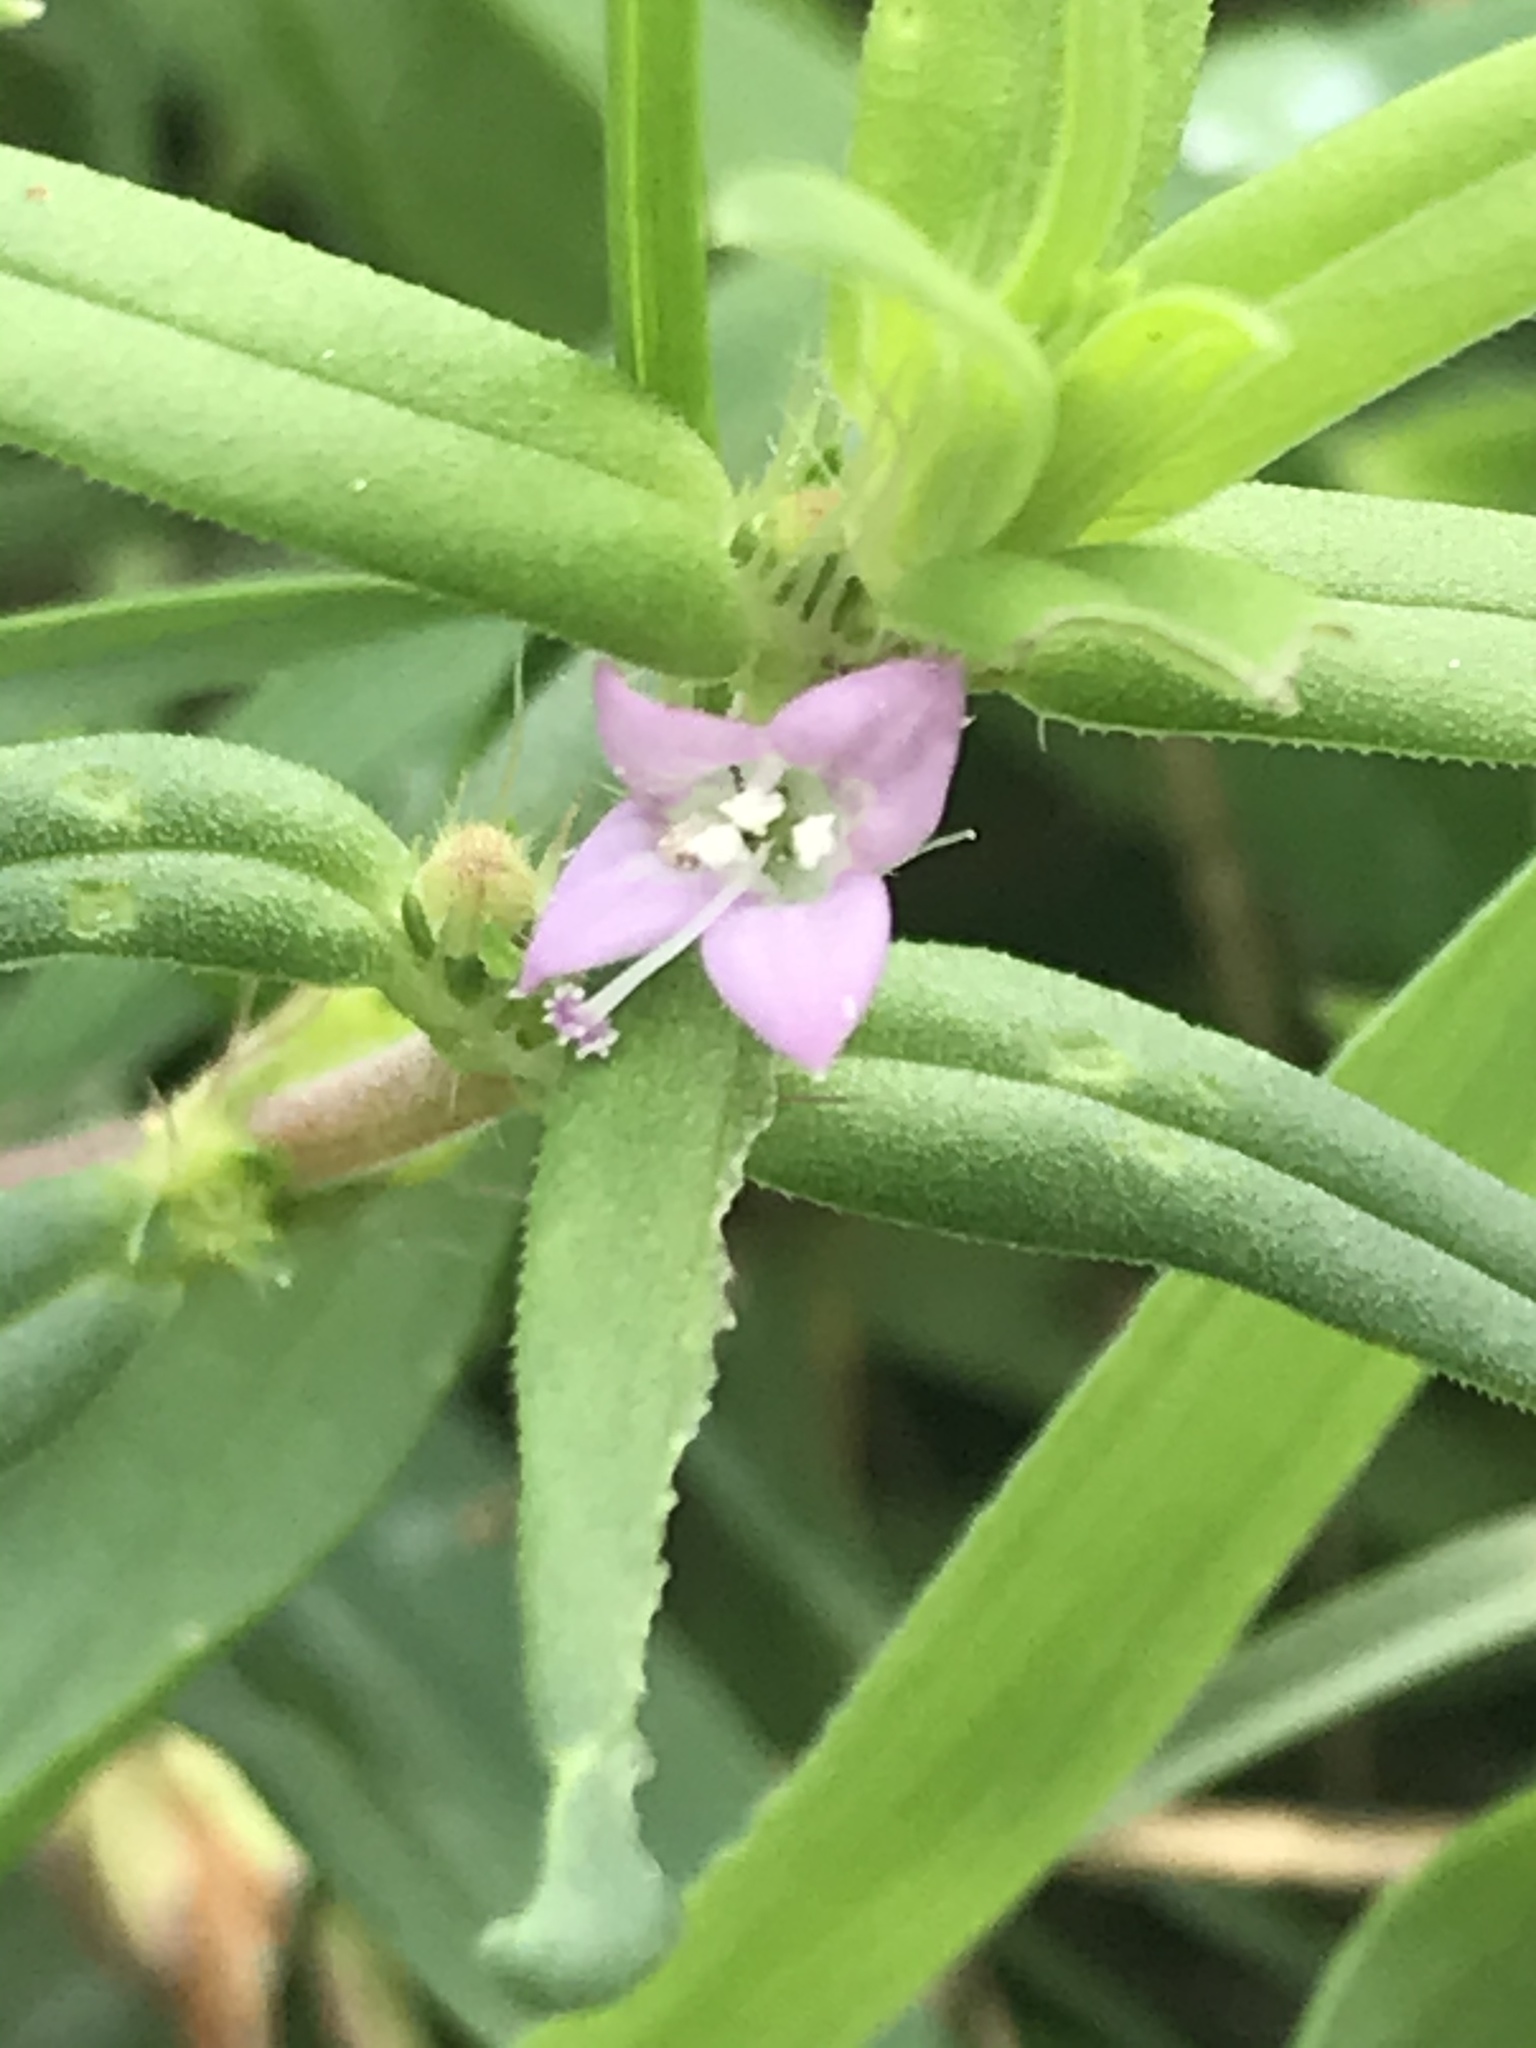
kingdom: Plantae
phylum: Tracheophyta
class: Magnoliopsida
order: Gentianales
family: Rubiaceae
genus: Hexasepalum
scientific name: Hexasepalum teres
